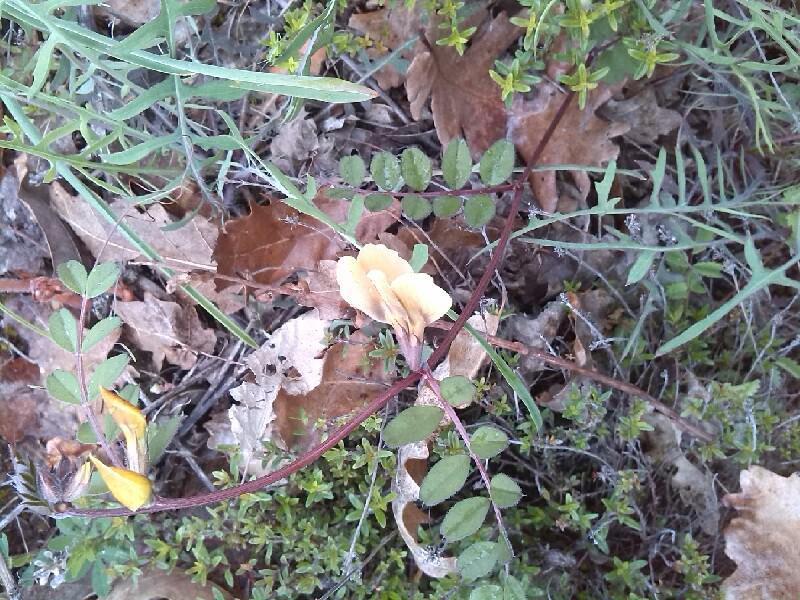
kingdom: Plantae
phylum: Tracheophyta
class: Magnoliopsida
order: Fabales
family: Fabaceae
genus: Vicia
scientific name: Vicia lutea
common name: Smooth yellow vetch
